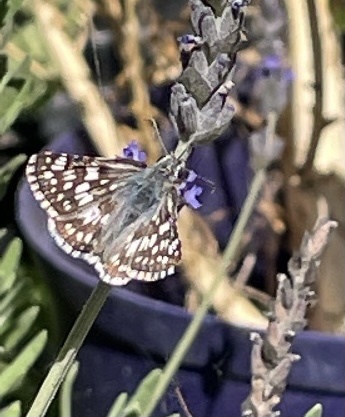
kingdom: Animalia
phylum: Arthropoda
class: Insecta
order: Lepidoptera
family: Hesperiidae
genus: Burnsius
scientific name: Burnsius communis
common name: Common checkered-skipper
